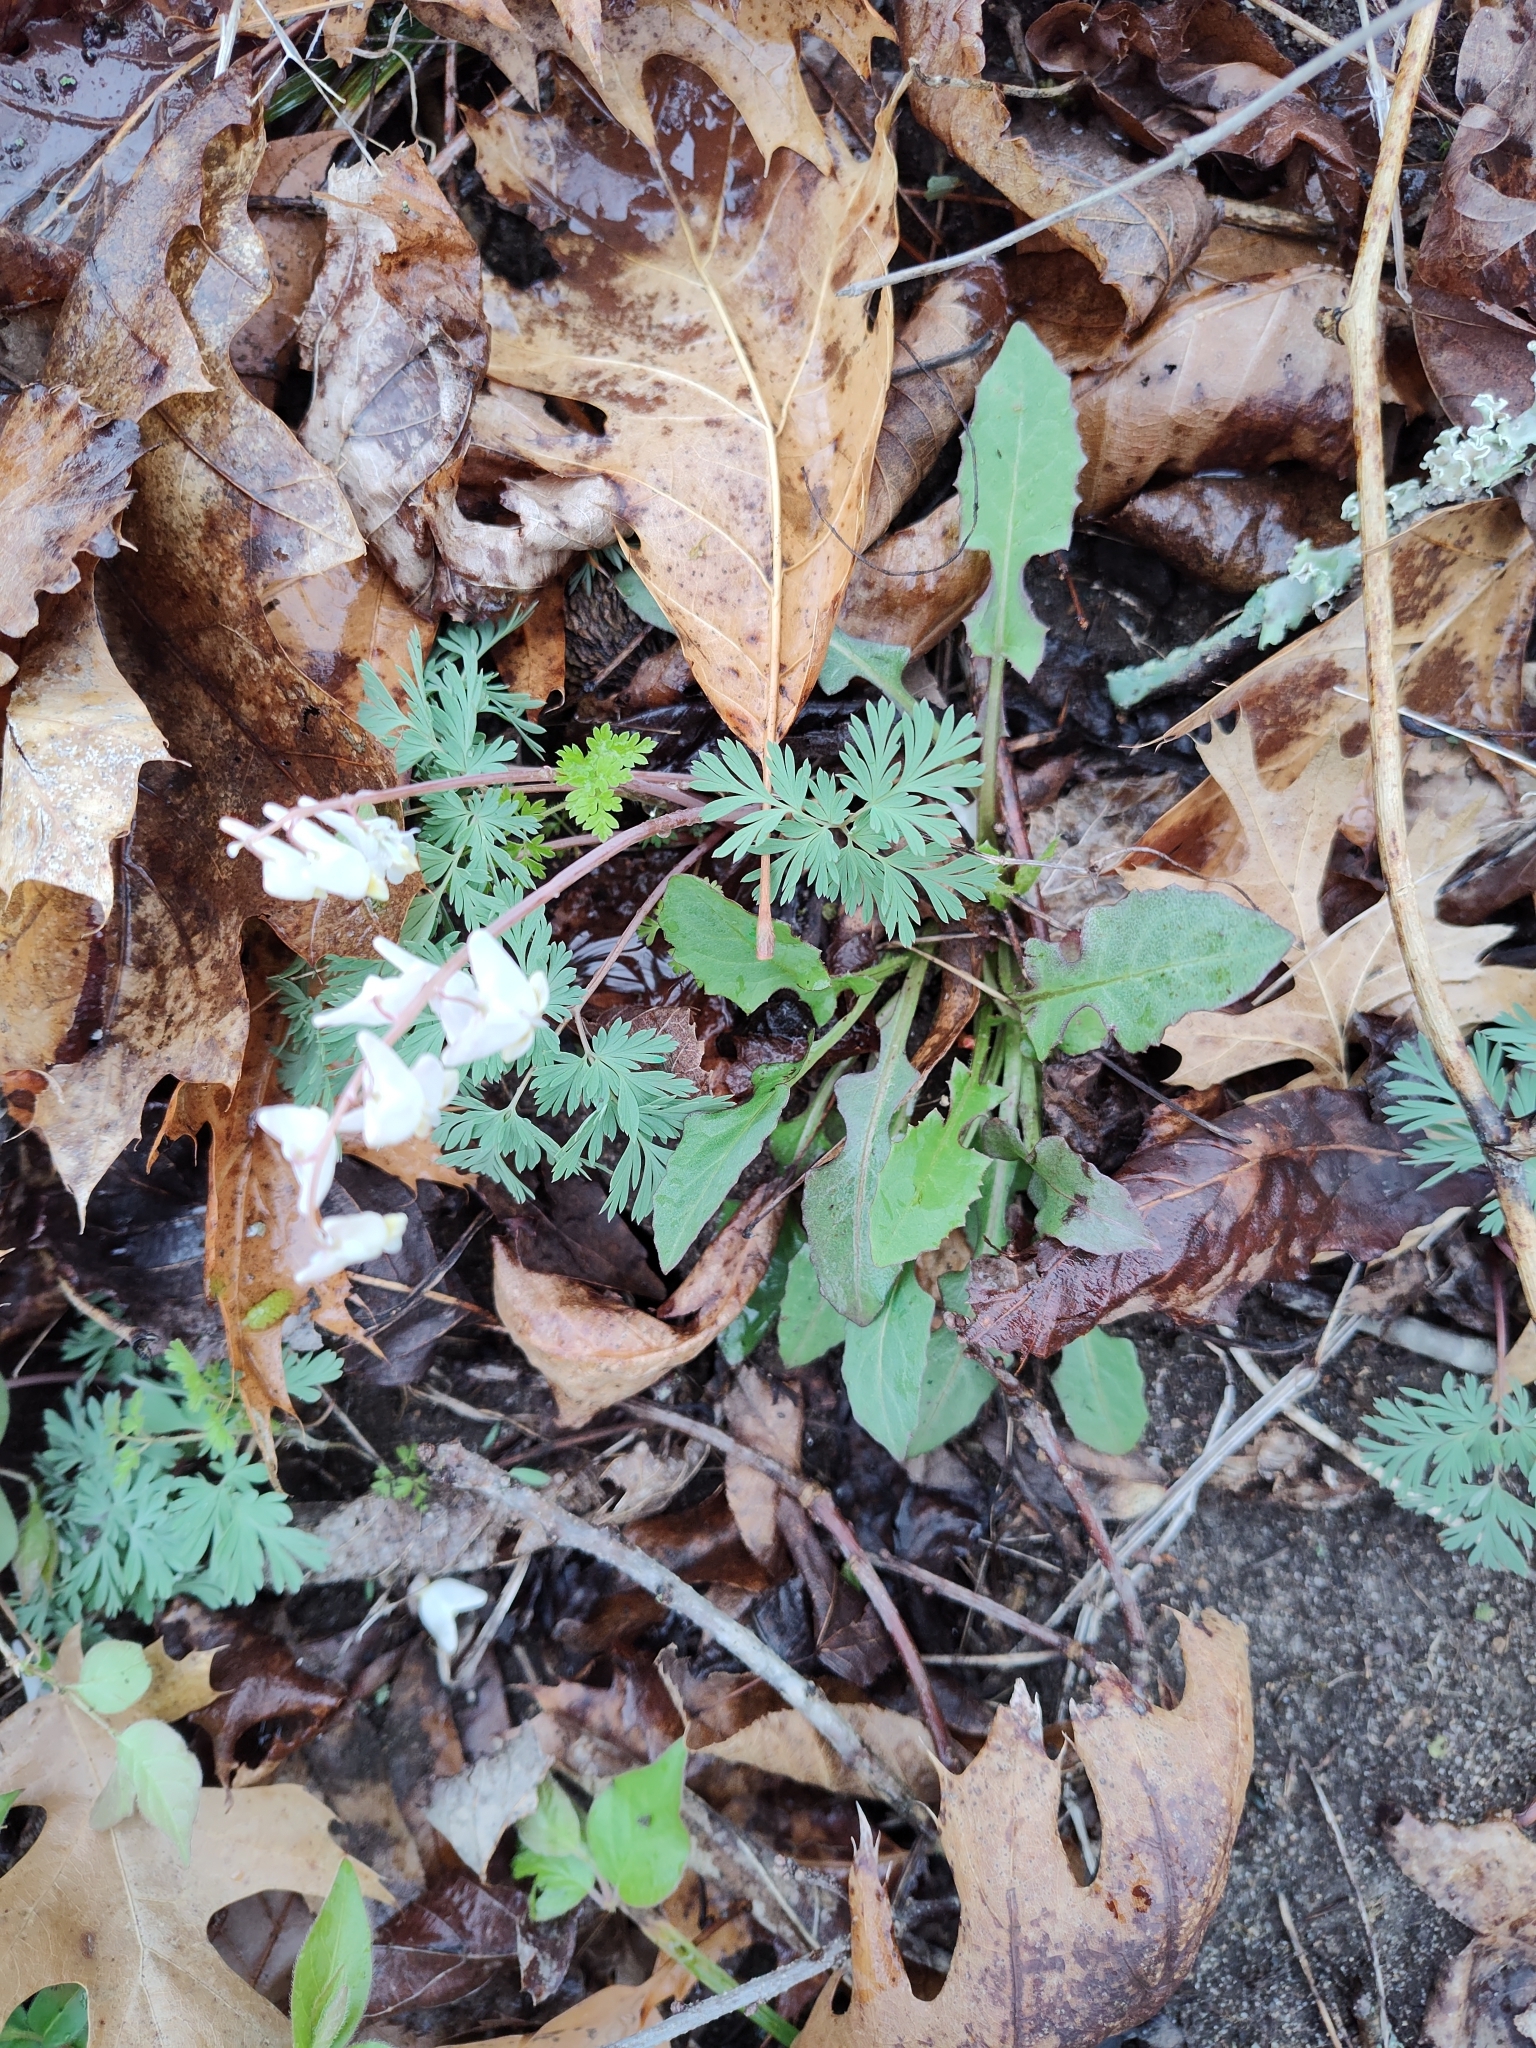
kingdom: Plantae
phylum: Tracheophyta
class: Magnoliopsida
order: Ranunculales
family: Papaveraceae
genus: Dicentra
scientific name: Dicentra cucullaria
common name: Dutchman's breeches
